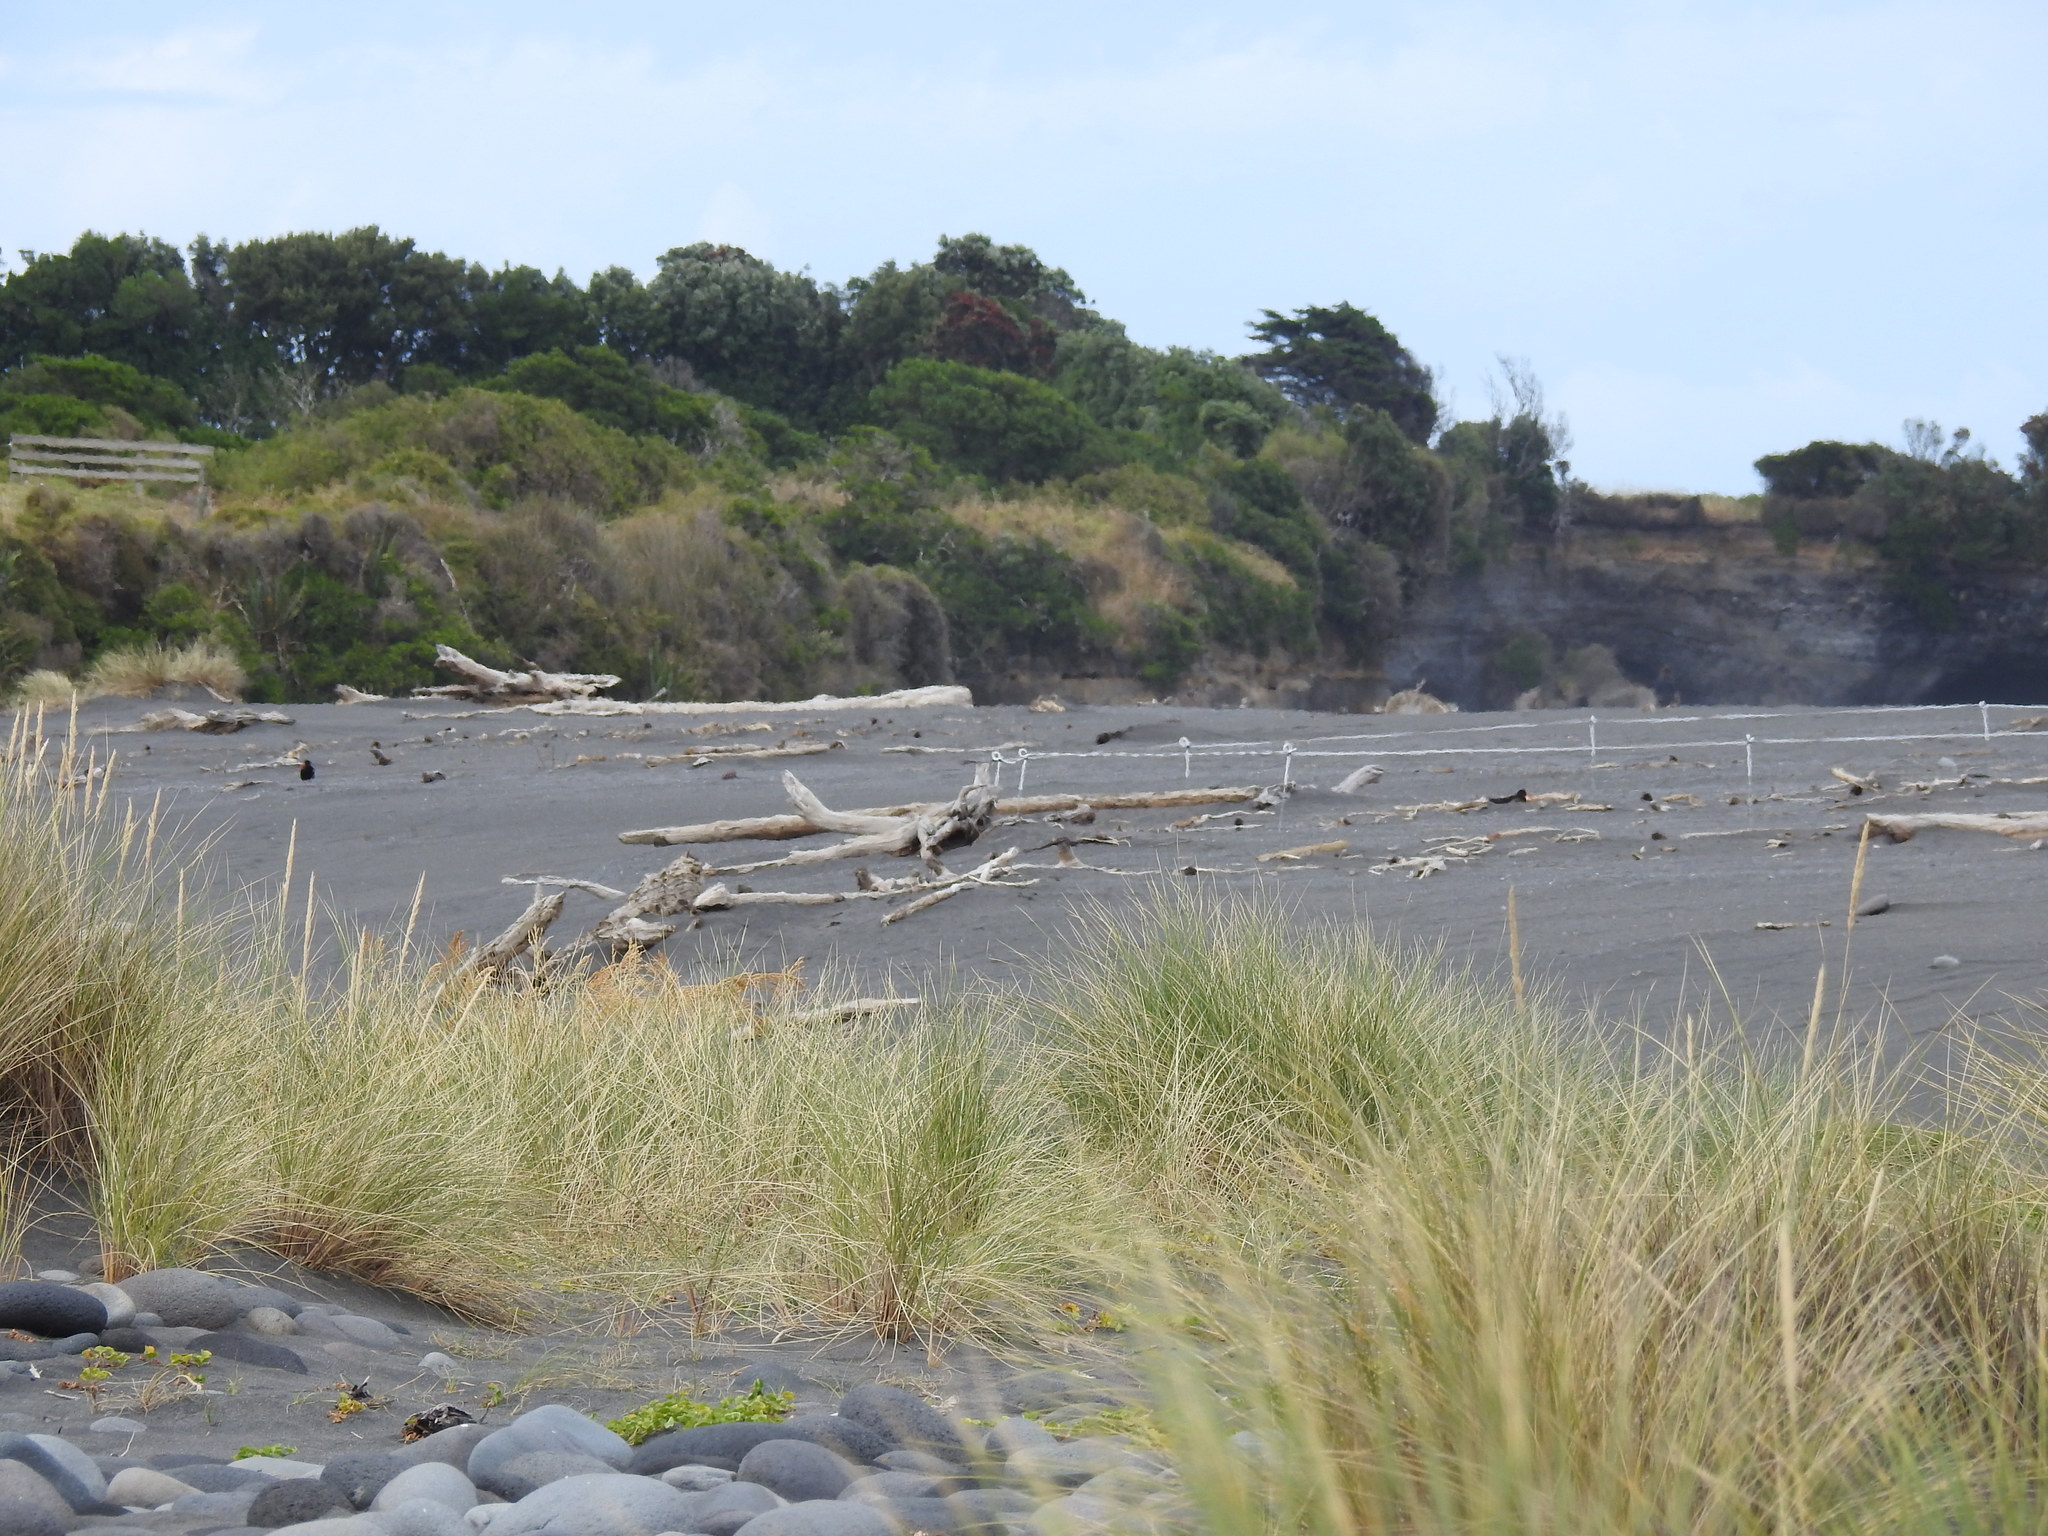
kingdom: Animalia
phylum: Chordata
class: Aves
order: Charadriiformes
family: Haematopodidae
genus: Haematopus
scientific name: Haematopus unicolor
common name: Variable oystercatcher
